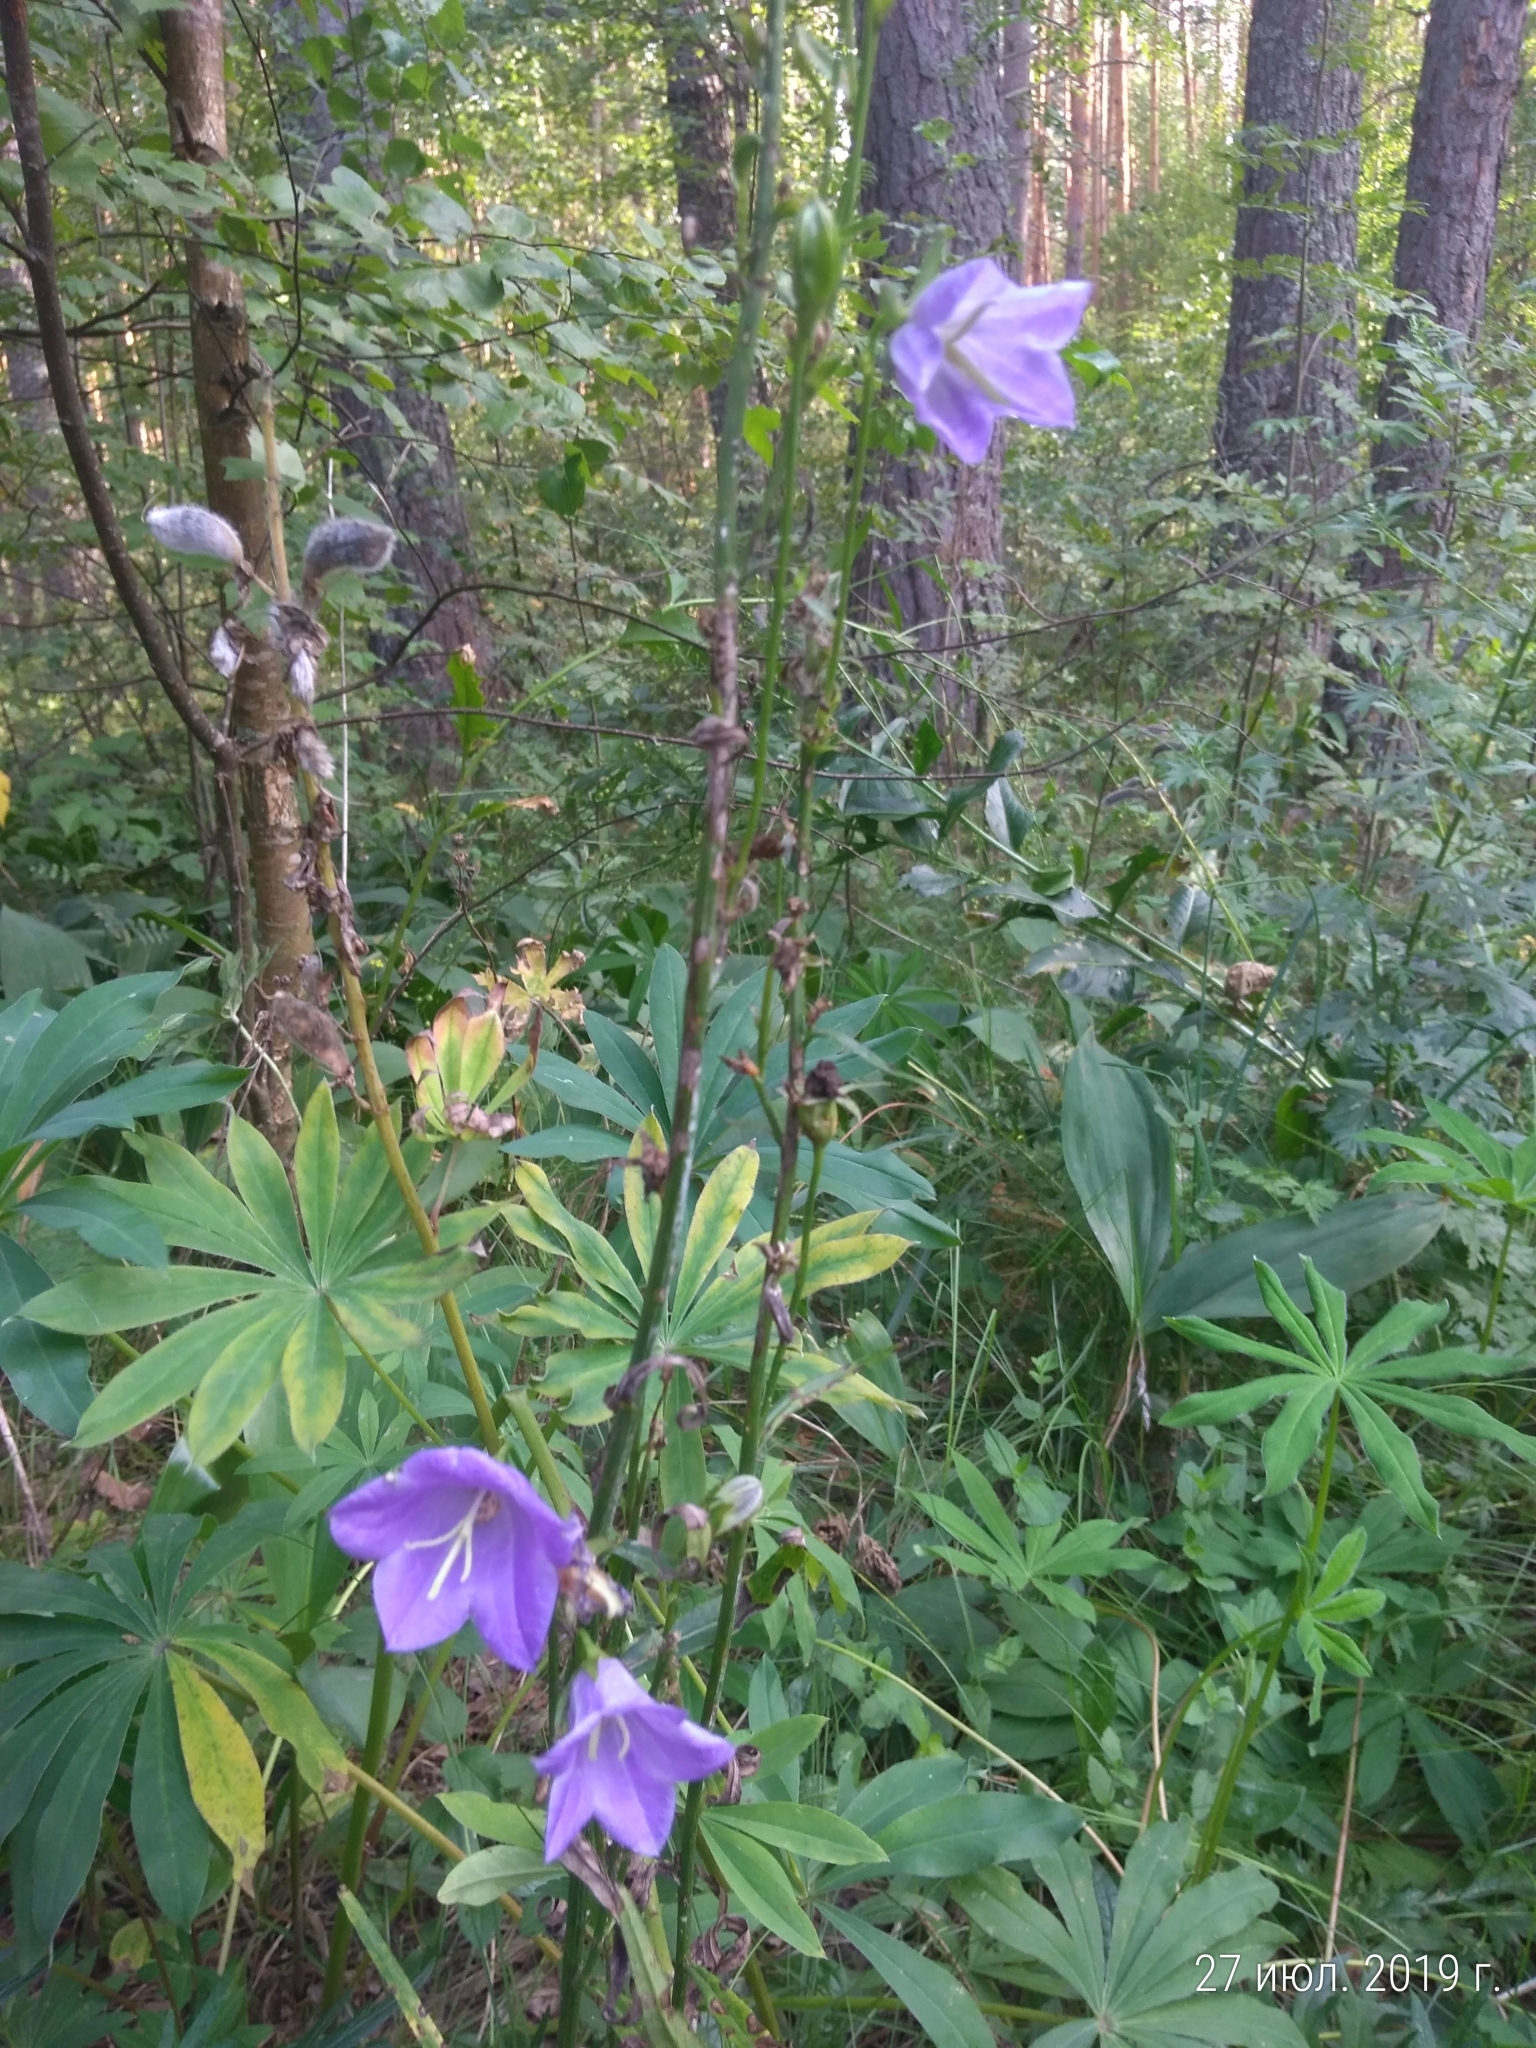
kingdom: Plantae
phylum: Tracheophyta
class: Magnoliopsida
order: Asterales
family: Campanulaceae
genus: Campanula
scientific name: Campanula persicifolia
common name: Peach-leaved bellflower
